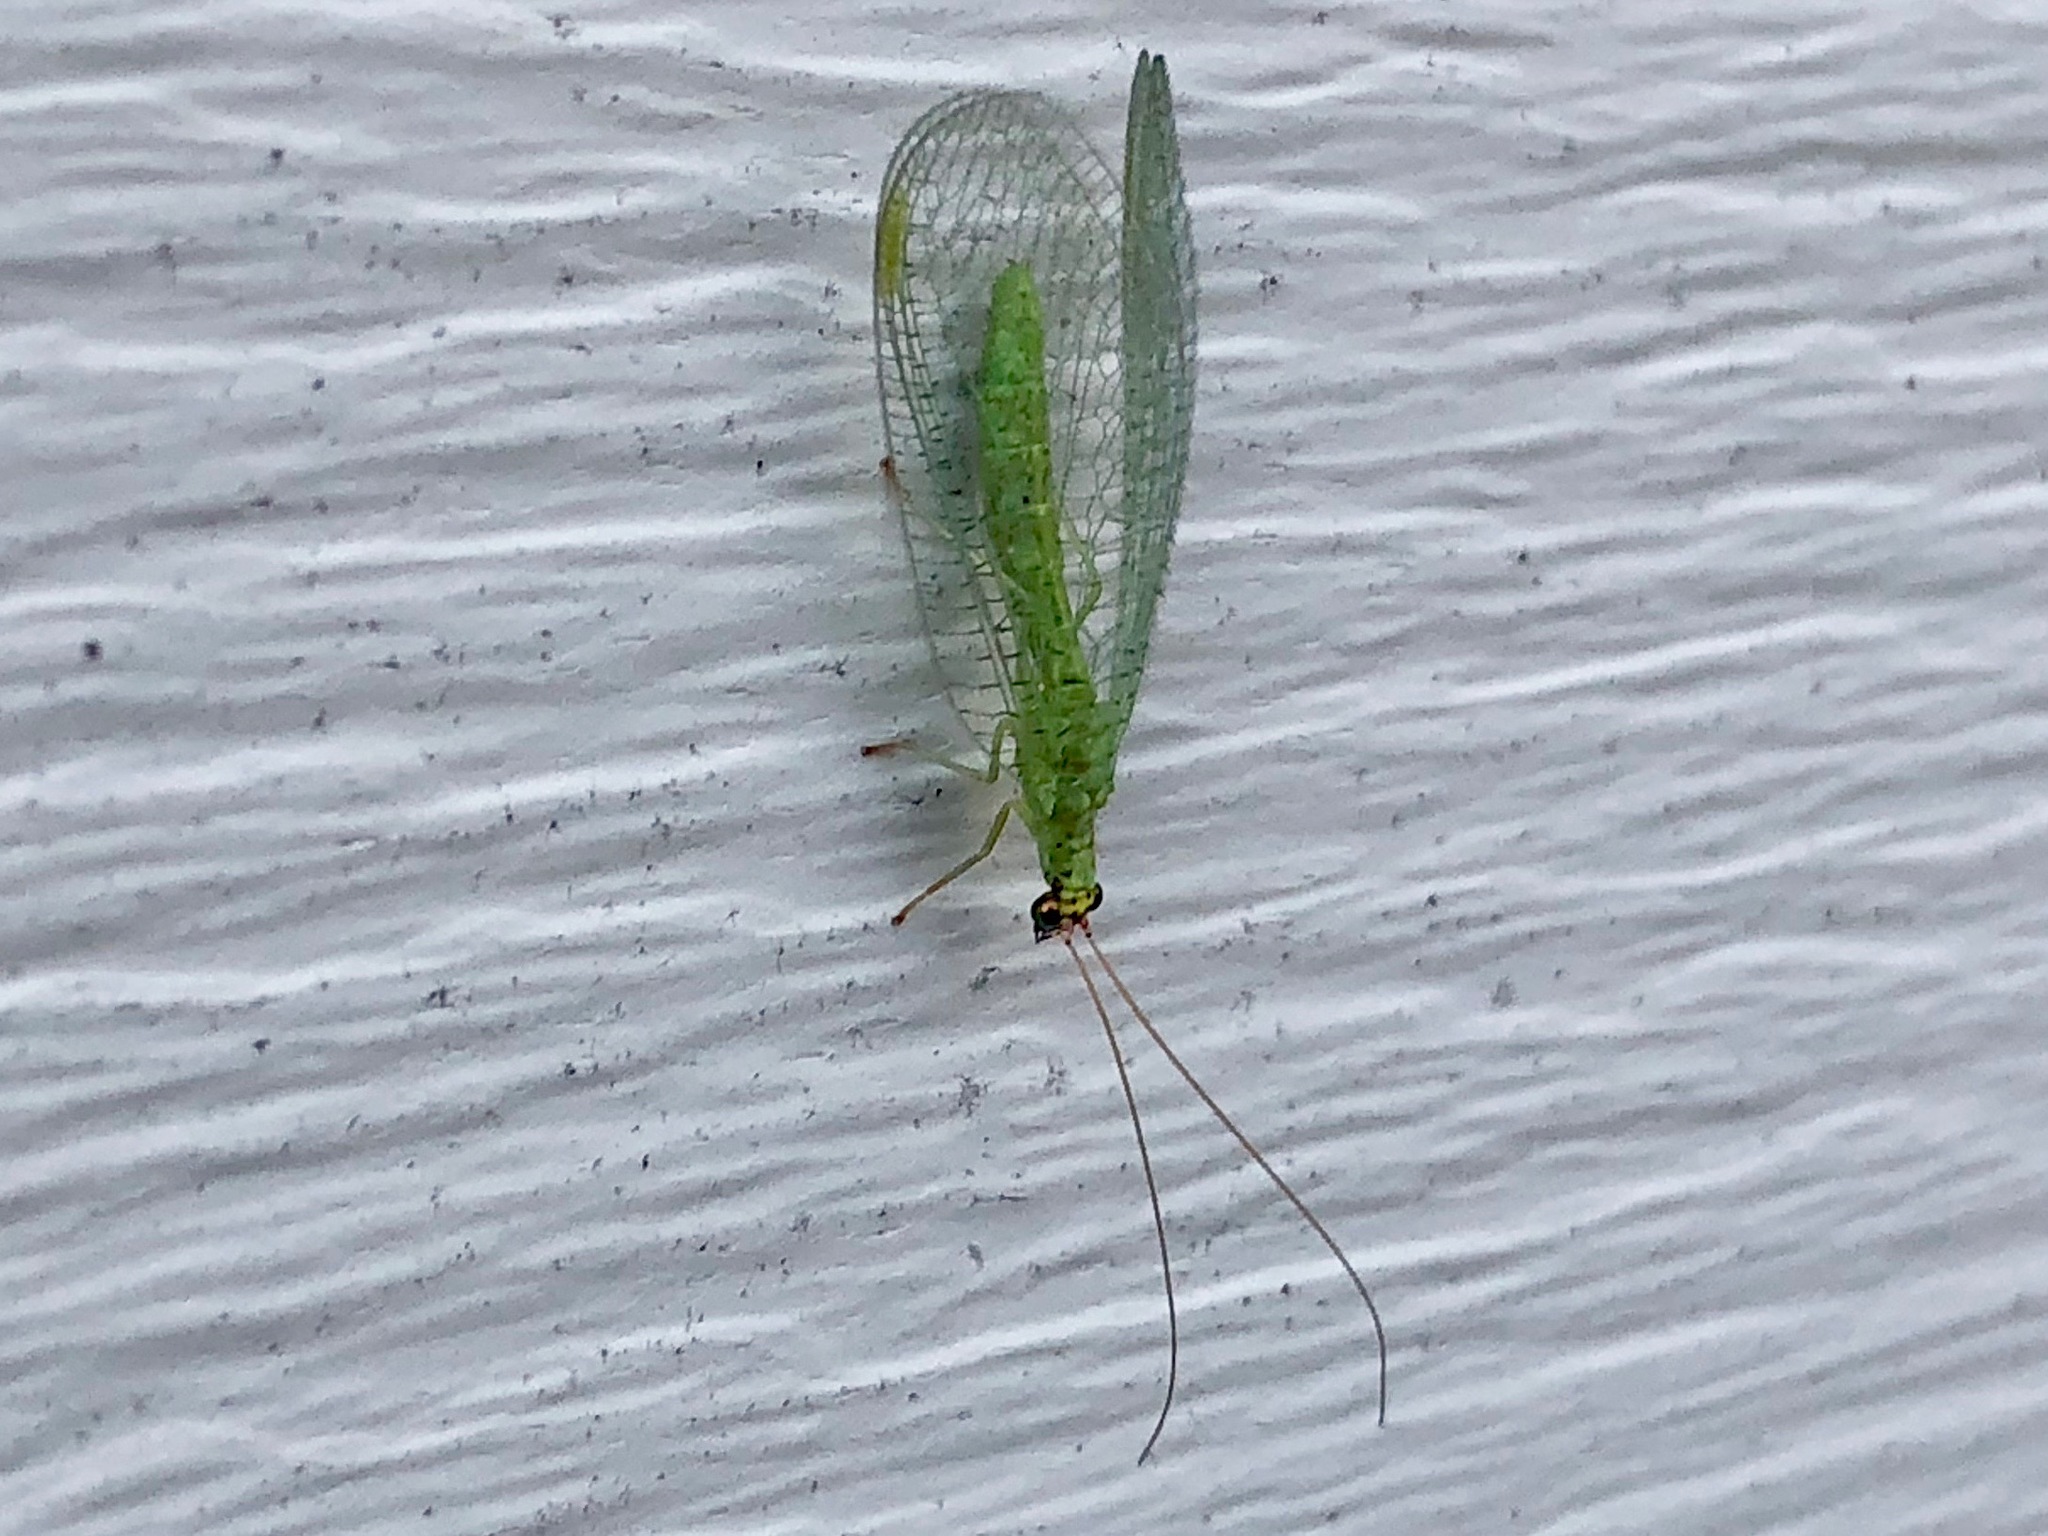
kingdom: Animalia
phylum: Arthropoda
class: Insecta
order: Neuroptera
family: Chrysopidae
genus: Chrysopa
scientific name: Chrysopa oculata
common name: Golden-eyed lacewing
